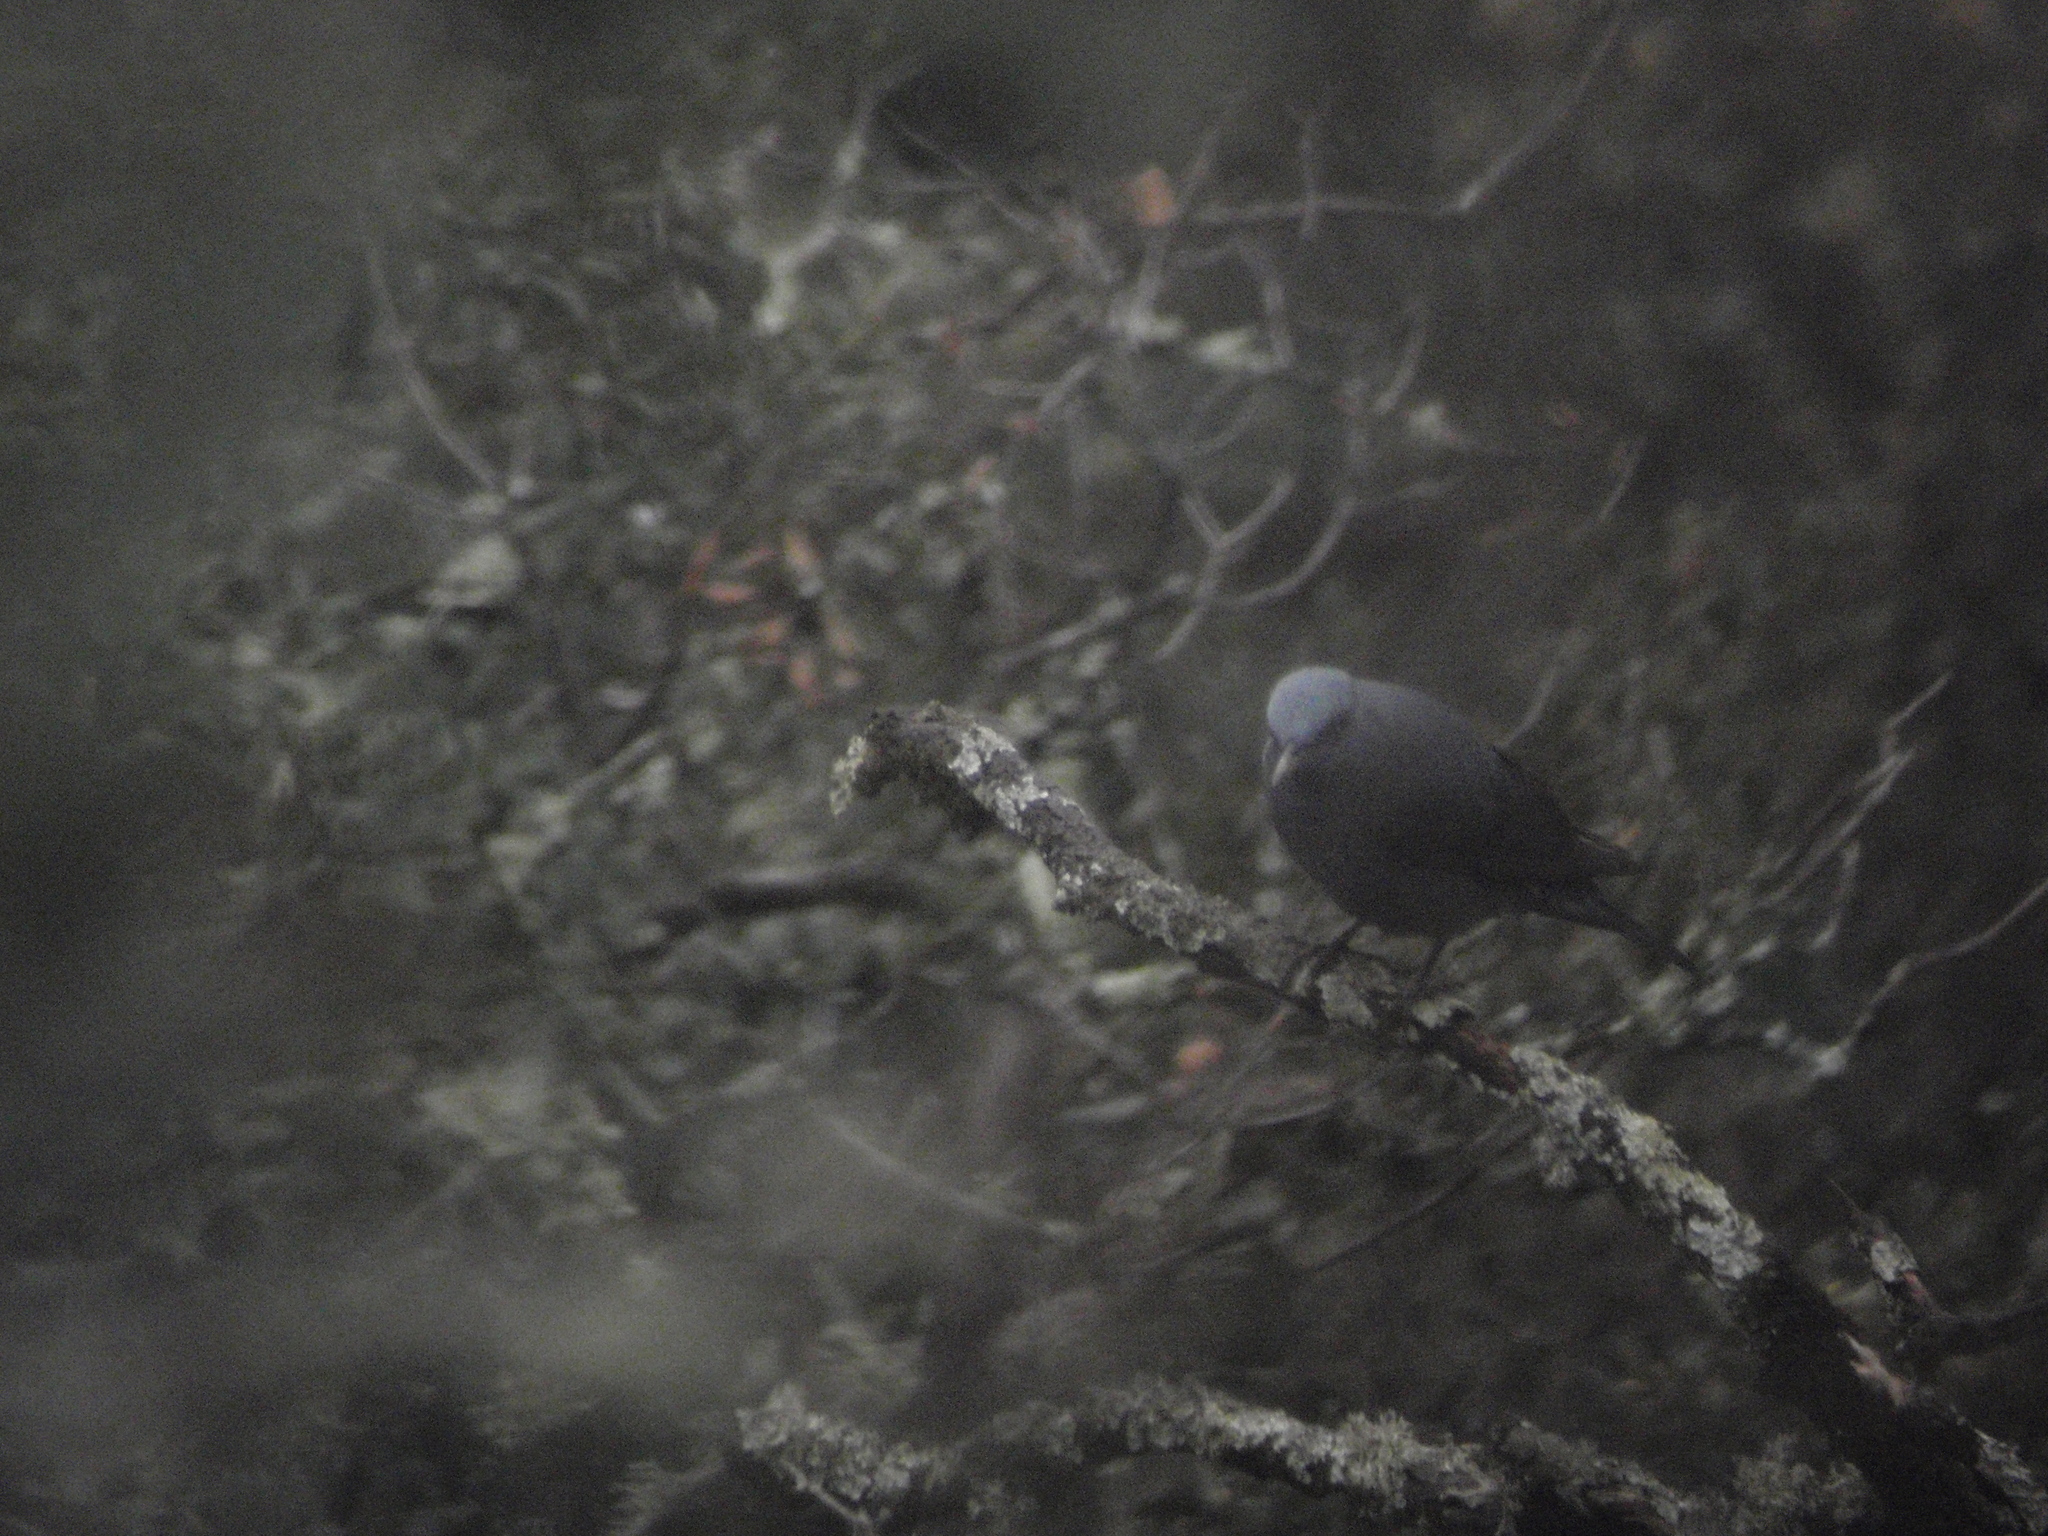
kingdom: Animalia
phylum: Chordata
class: Aves
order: Passeriformes
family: Muscicapidae
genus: Monticola
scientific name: Monticola solitarius
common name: Blue rock thrush
